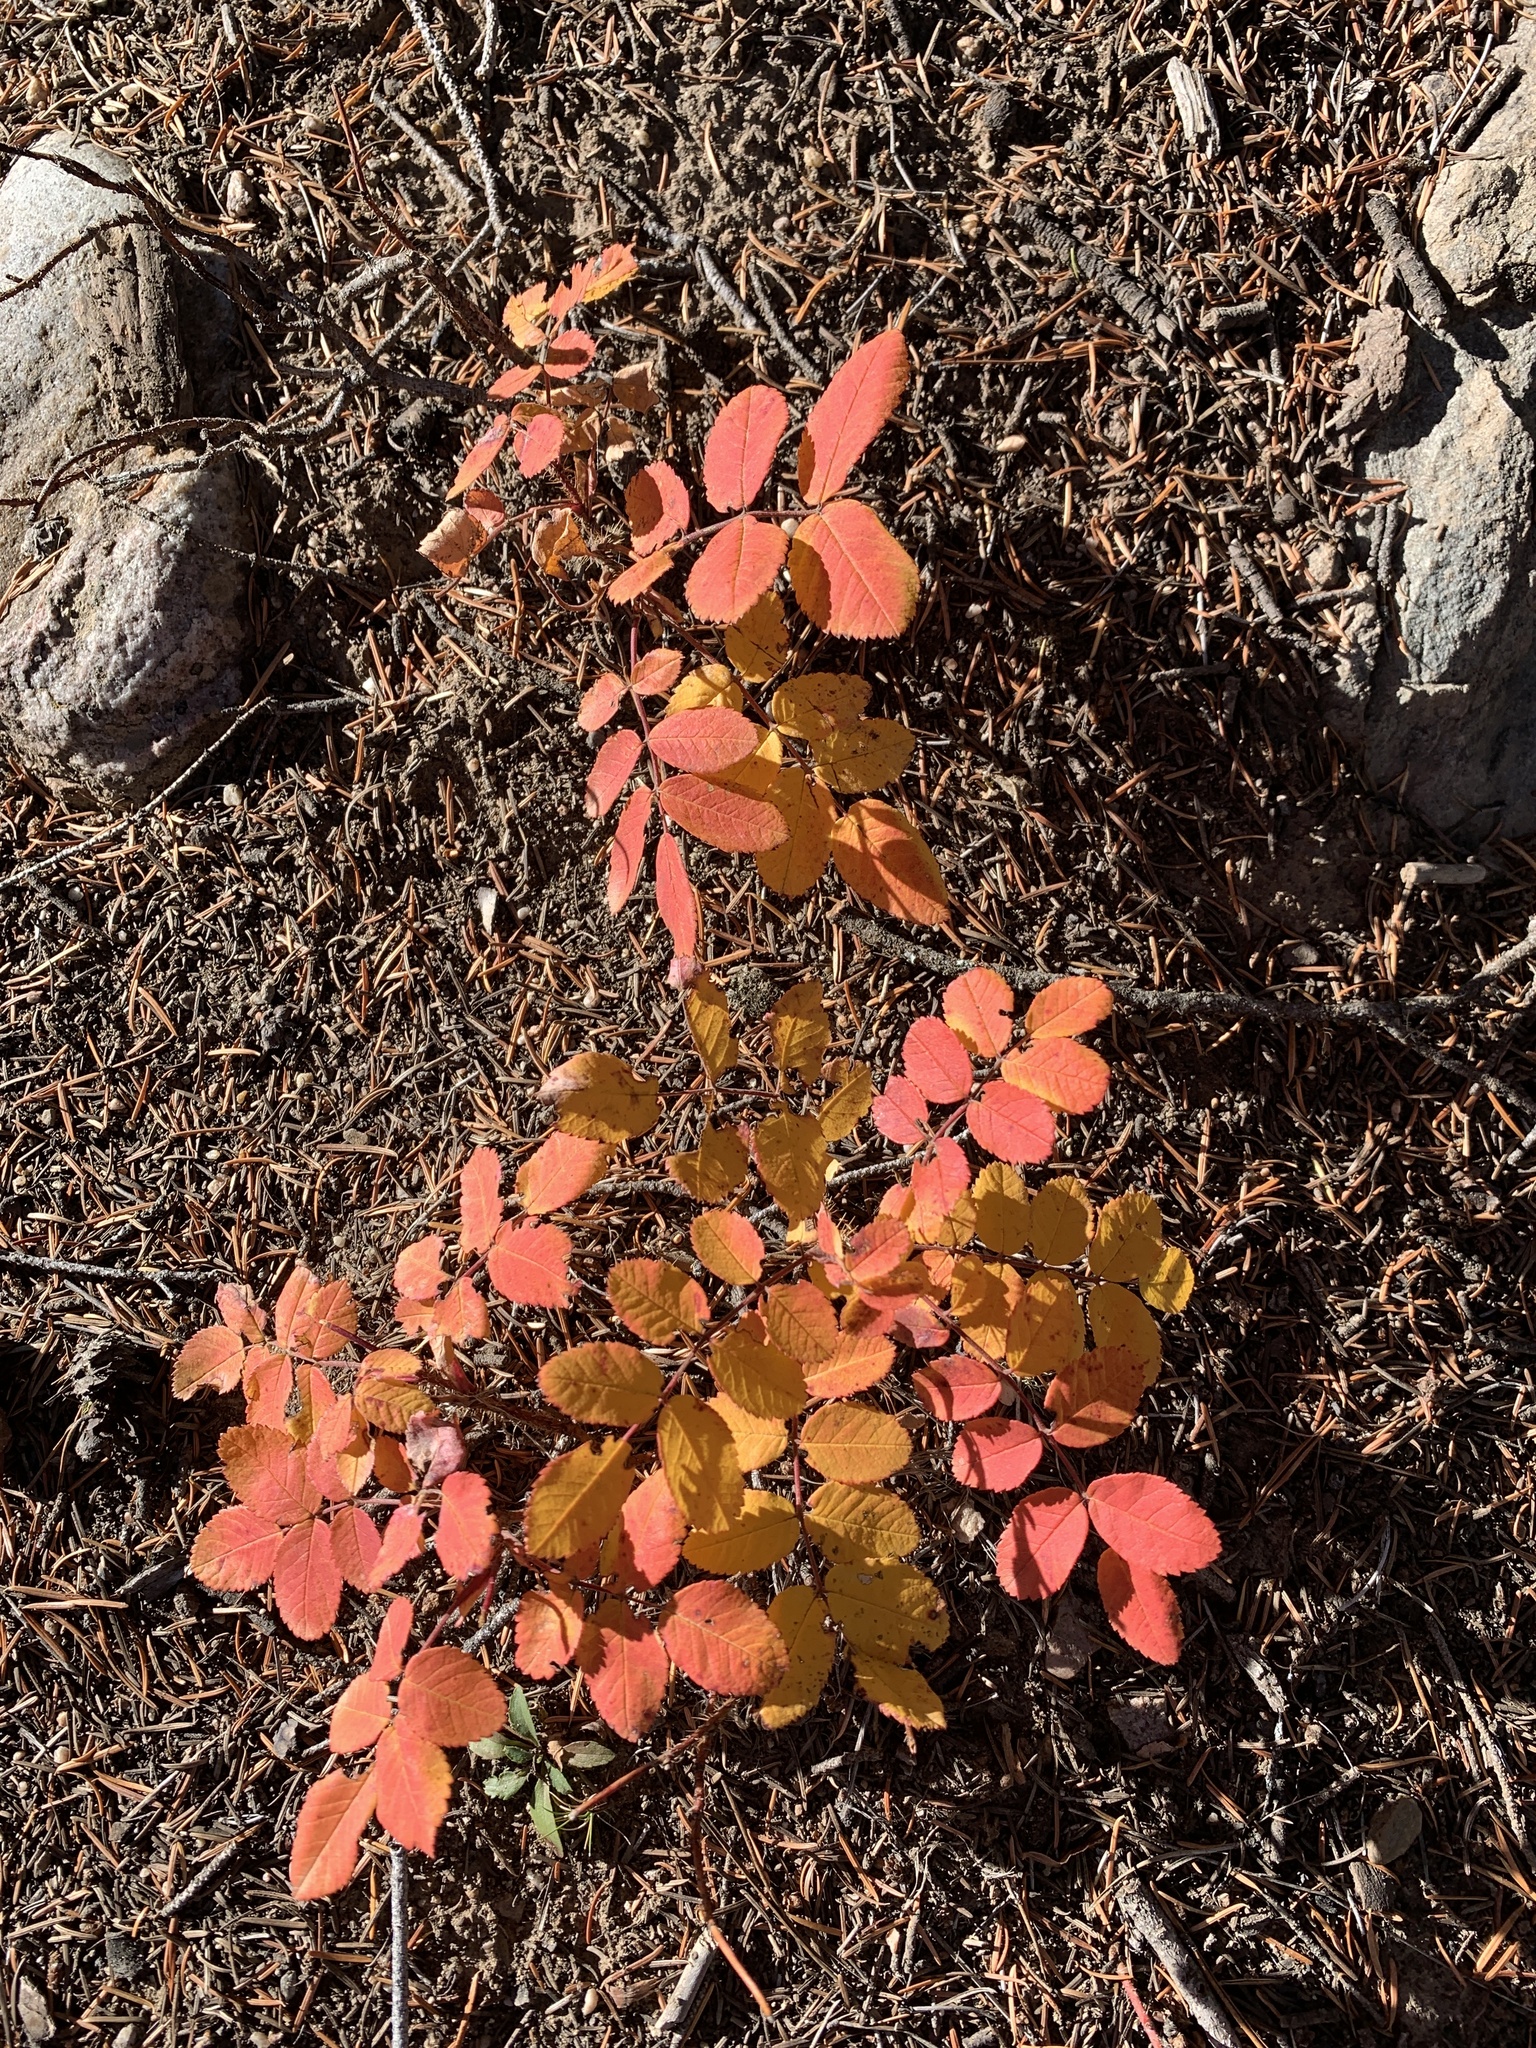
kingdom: Plantae
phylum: Tracheophyta
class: Magnoliopsida
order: Rosales
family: Rosaceae
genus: Rosa
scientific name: Rosa acicularis
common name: Prickly rose
